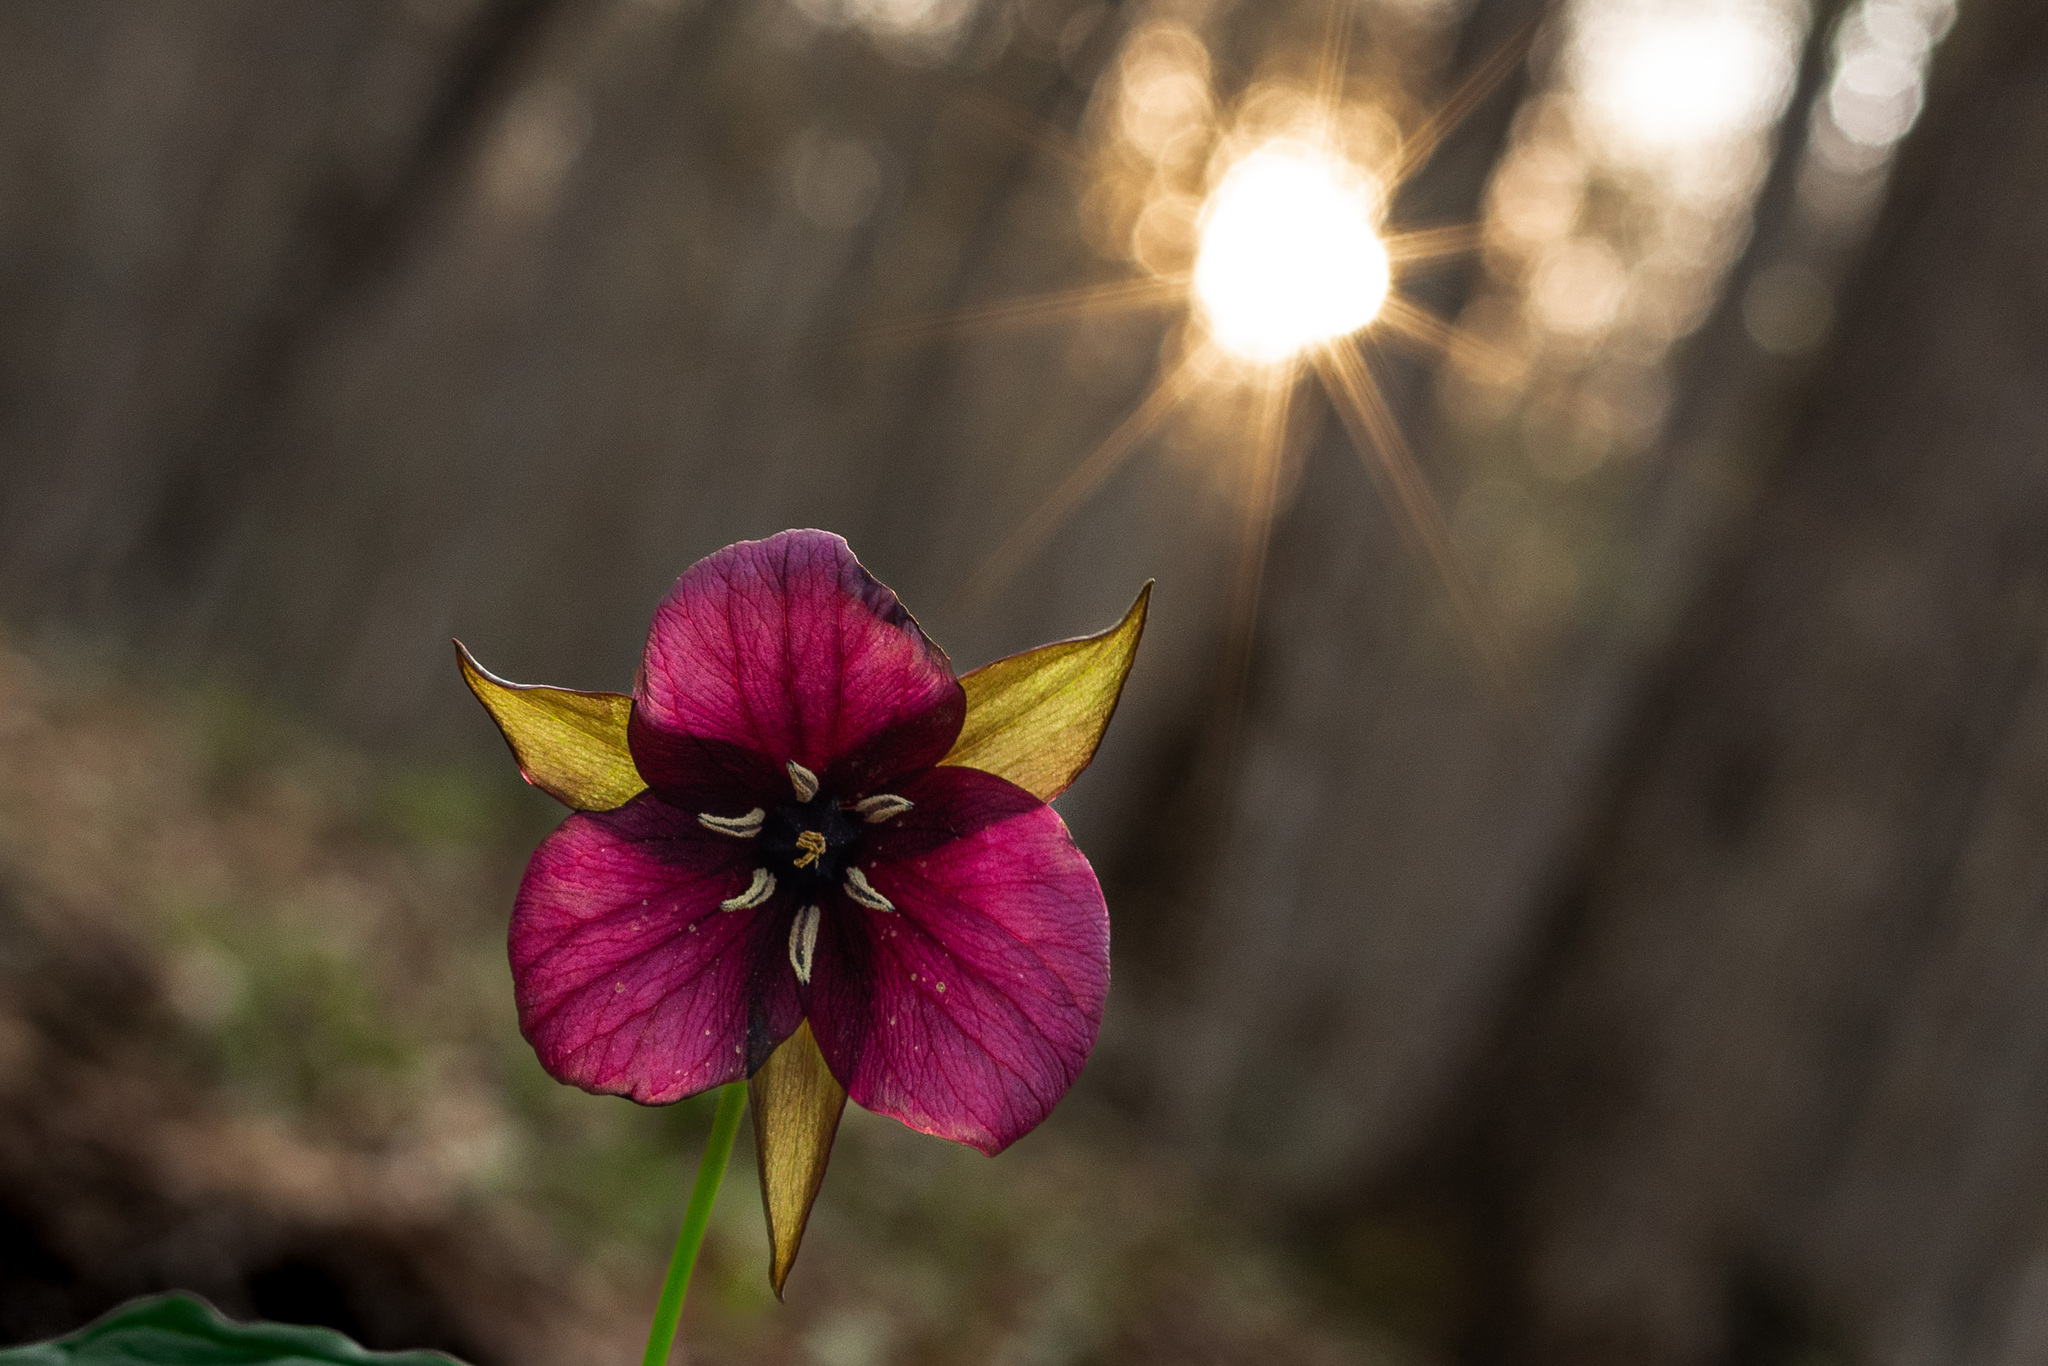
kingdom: Plantae
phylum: Tracheophyta
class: Liliopsida
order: Liliales
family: Melanthiaceae
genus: Trillium
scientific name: Trillium erectum
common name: Purple trillium
